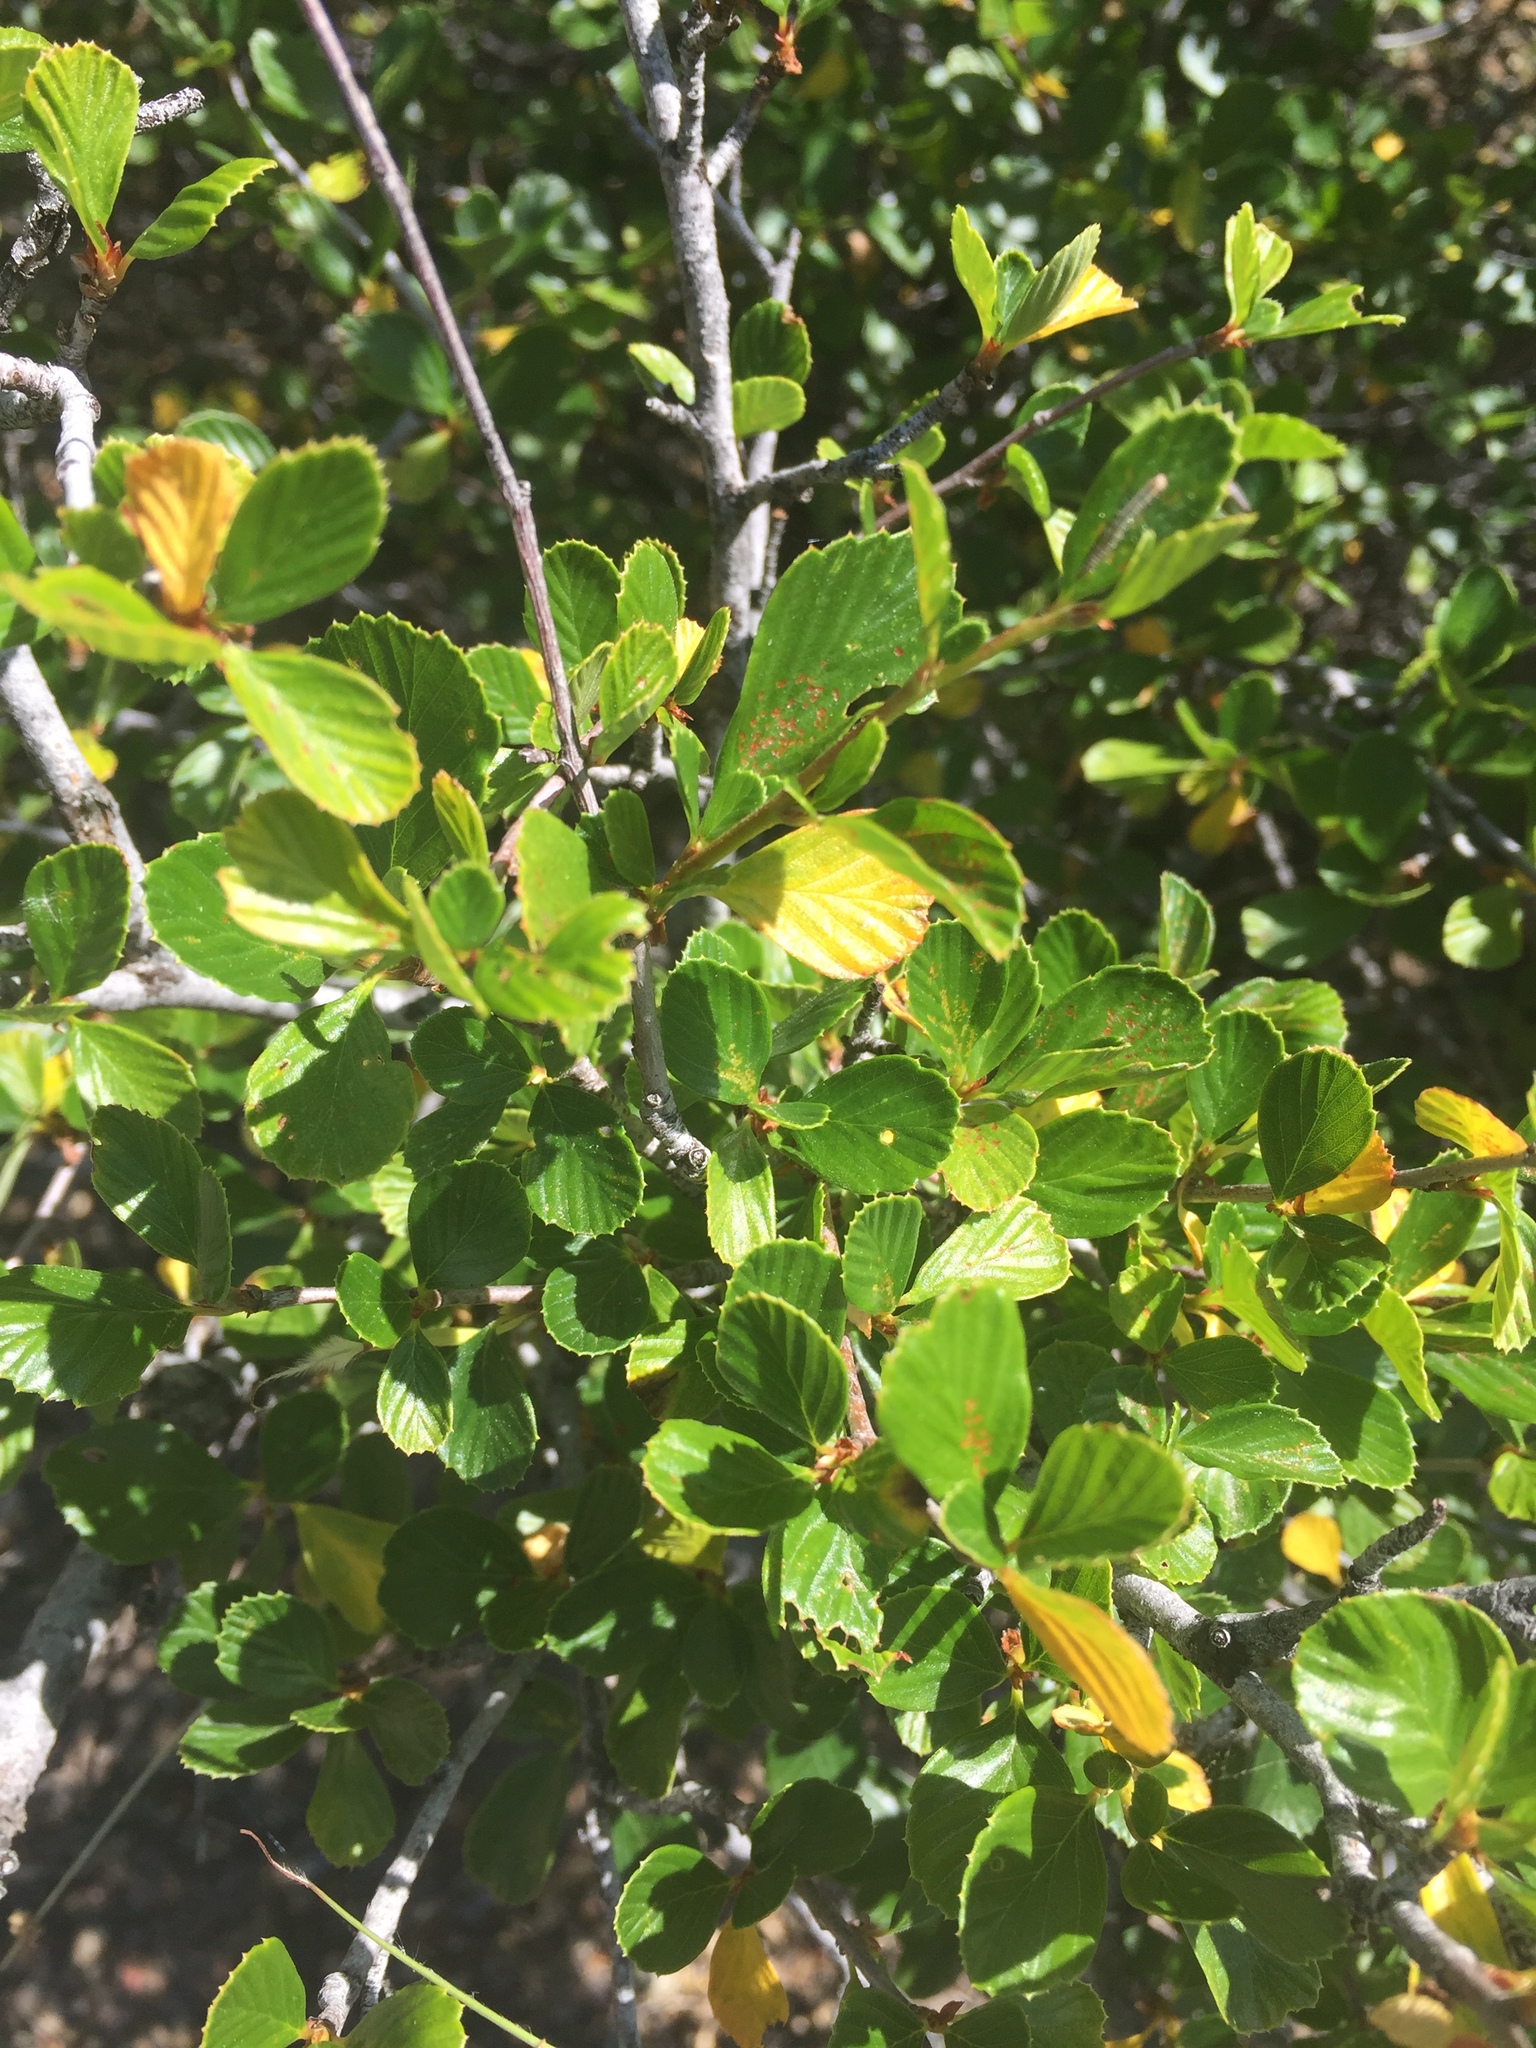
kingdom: Plantae
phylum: Tracheophyta
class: Magnoliopsida
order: Rosales
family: Rosaceae
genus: Cercocarpus
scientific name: Cercocarpus betuloides
